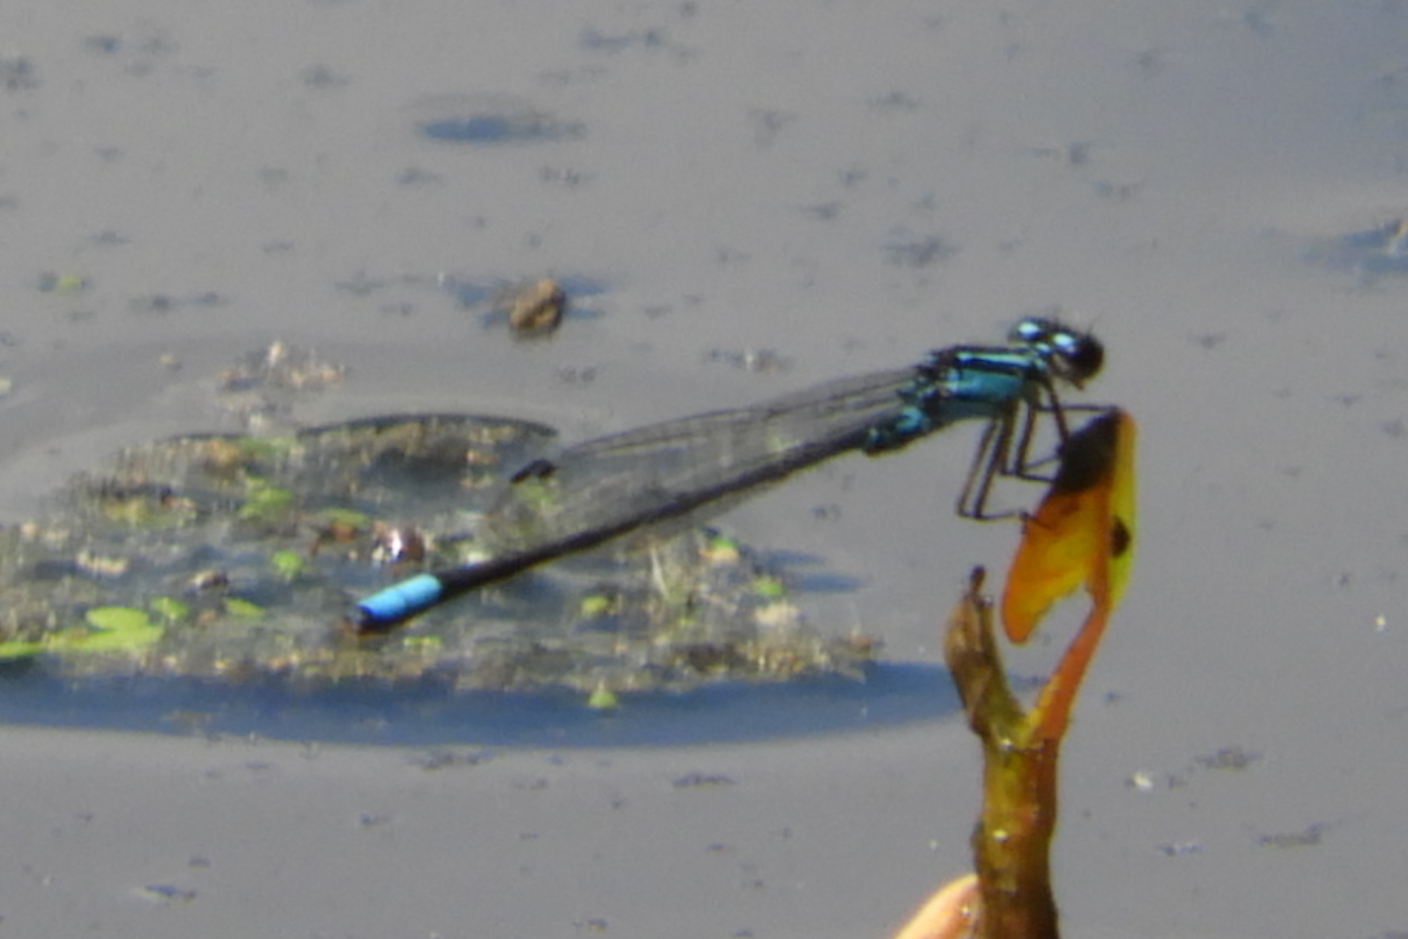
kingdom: Animalia
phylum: Arthropoda
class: Insecta
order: Odonata
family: Coenagrionidae
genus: Enallagma
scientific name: Enallagma geminatum
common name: Skimming bluet
